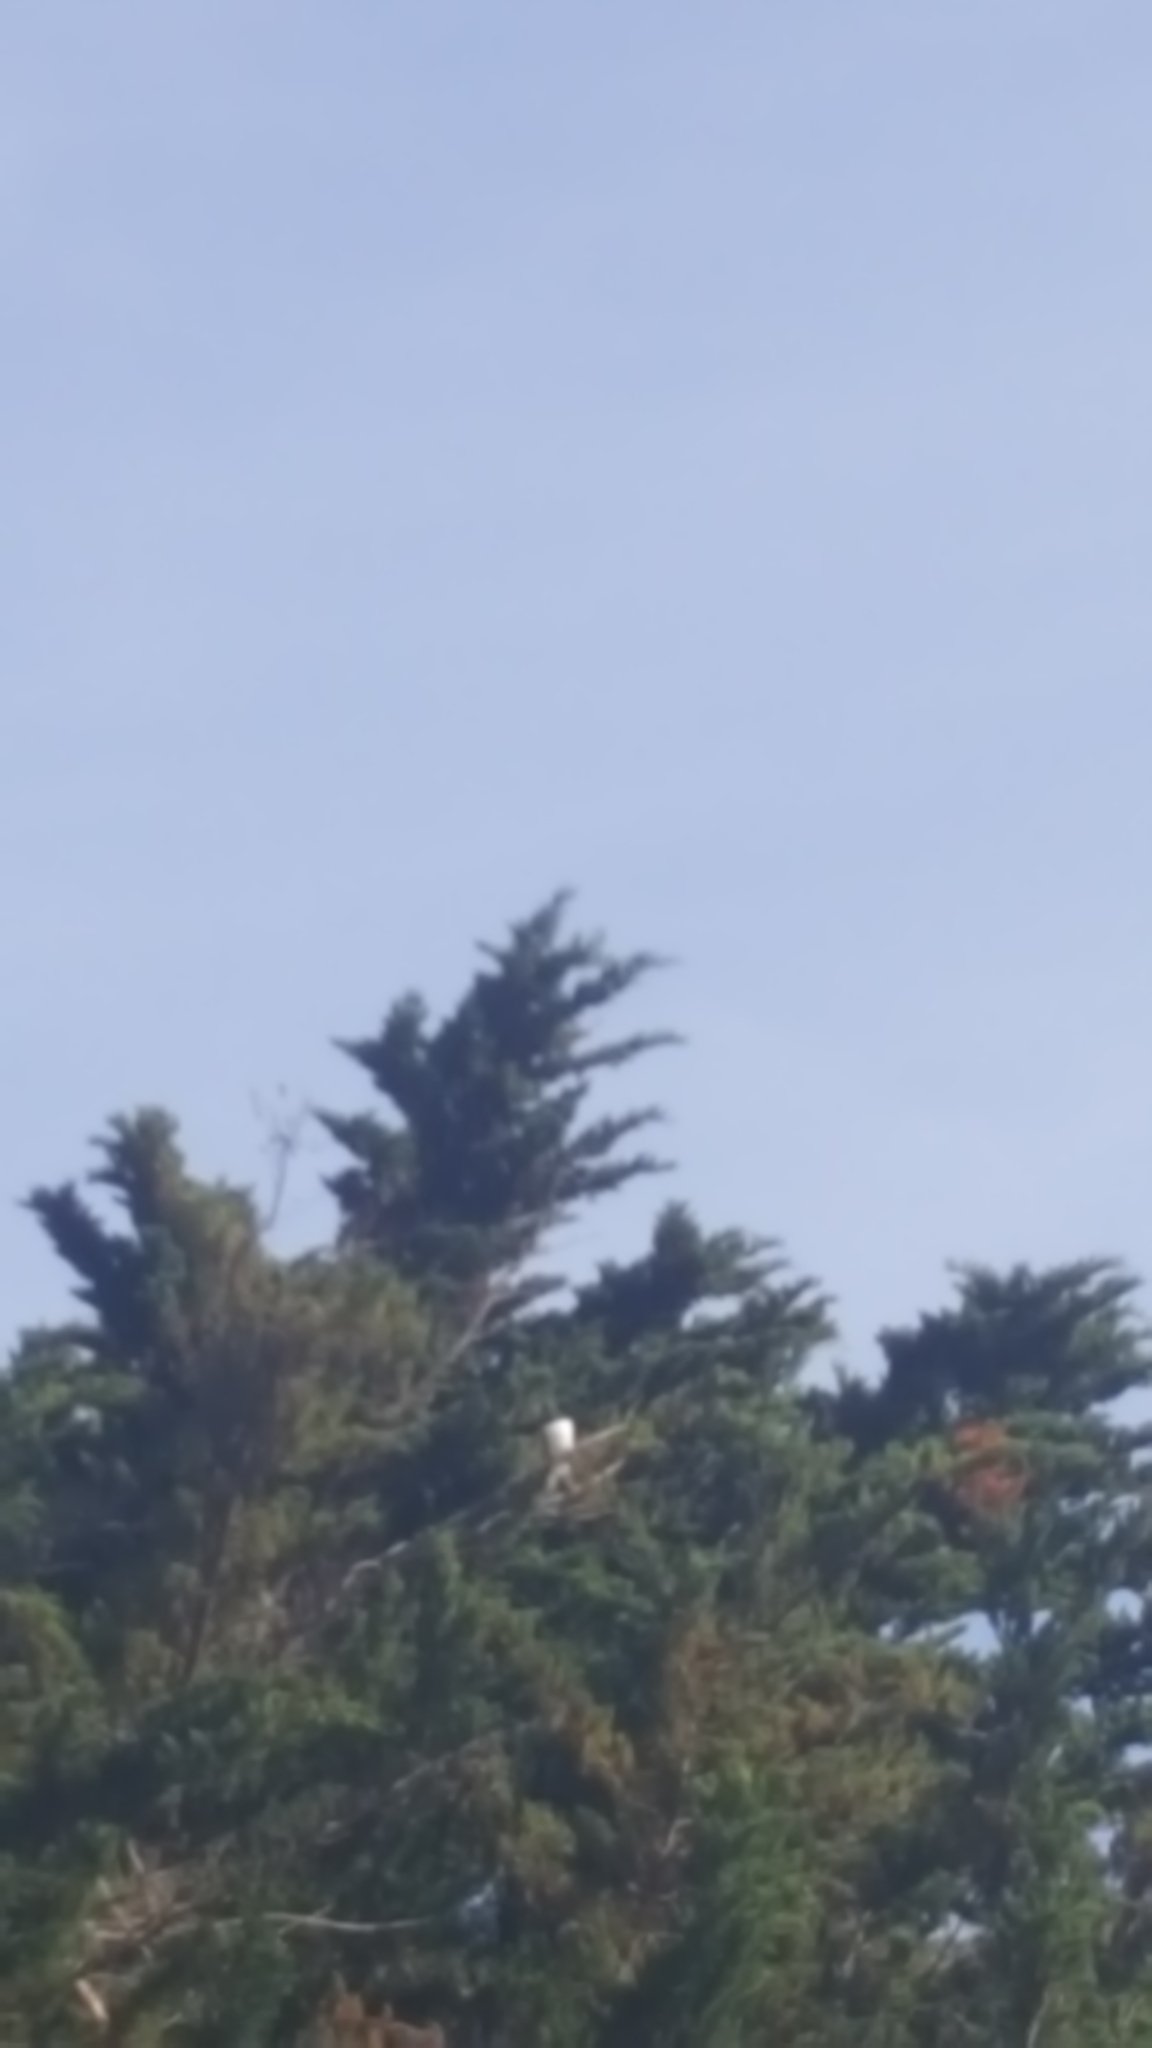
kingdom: Animalia
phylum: Chordata
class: Aves
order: Columbiformes
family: Columbidae
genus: Hemiphaga
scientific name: Hemiphaga novaeseelandiae
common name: New zealand pigeon
